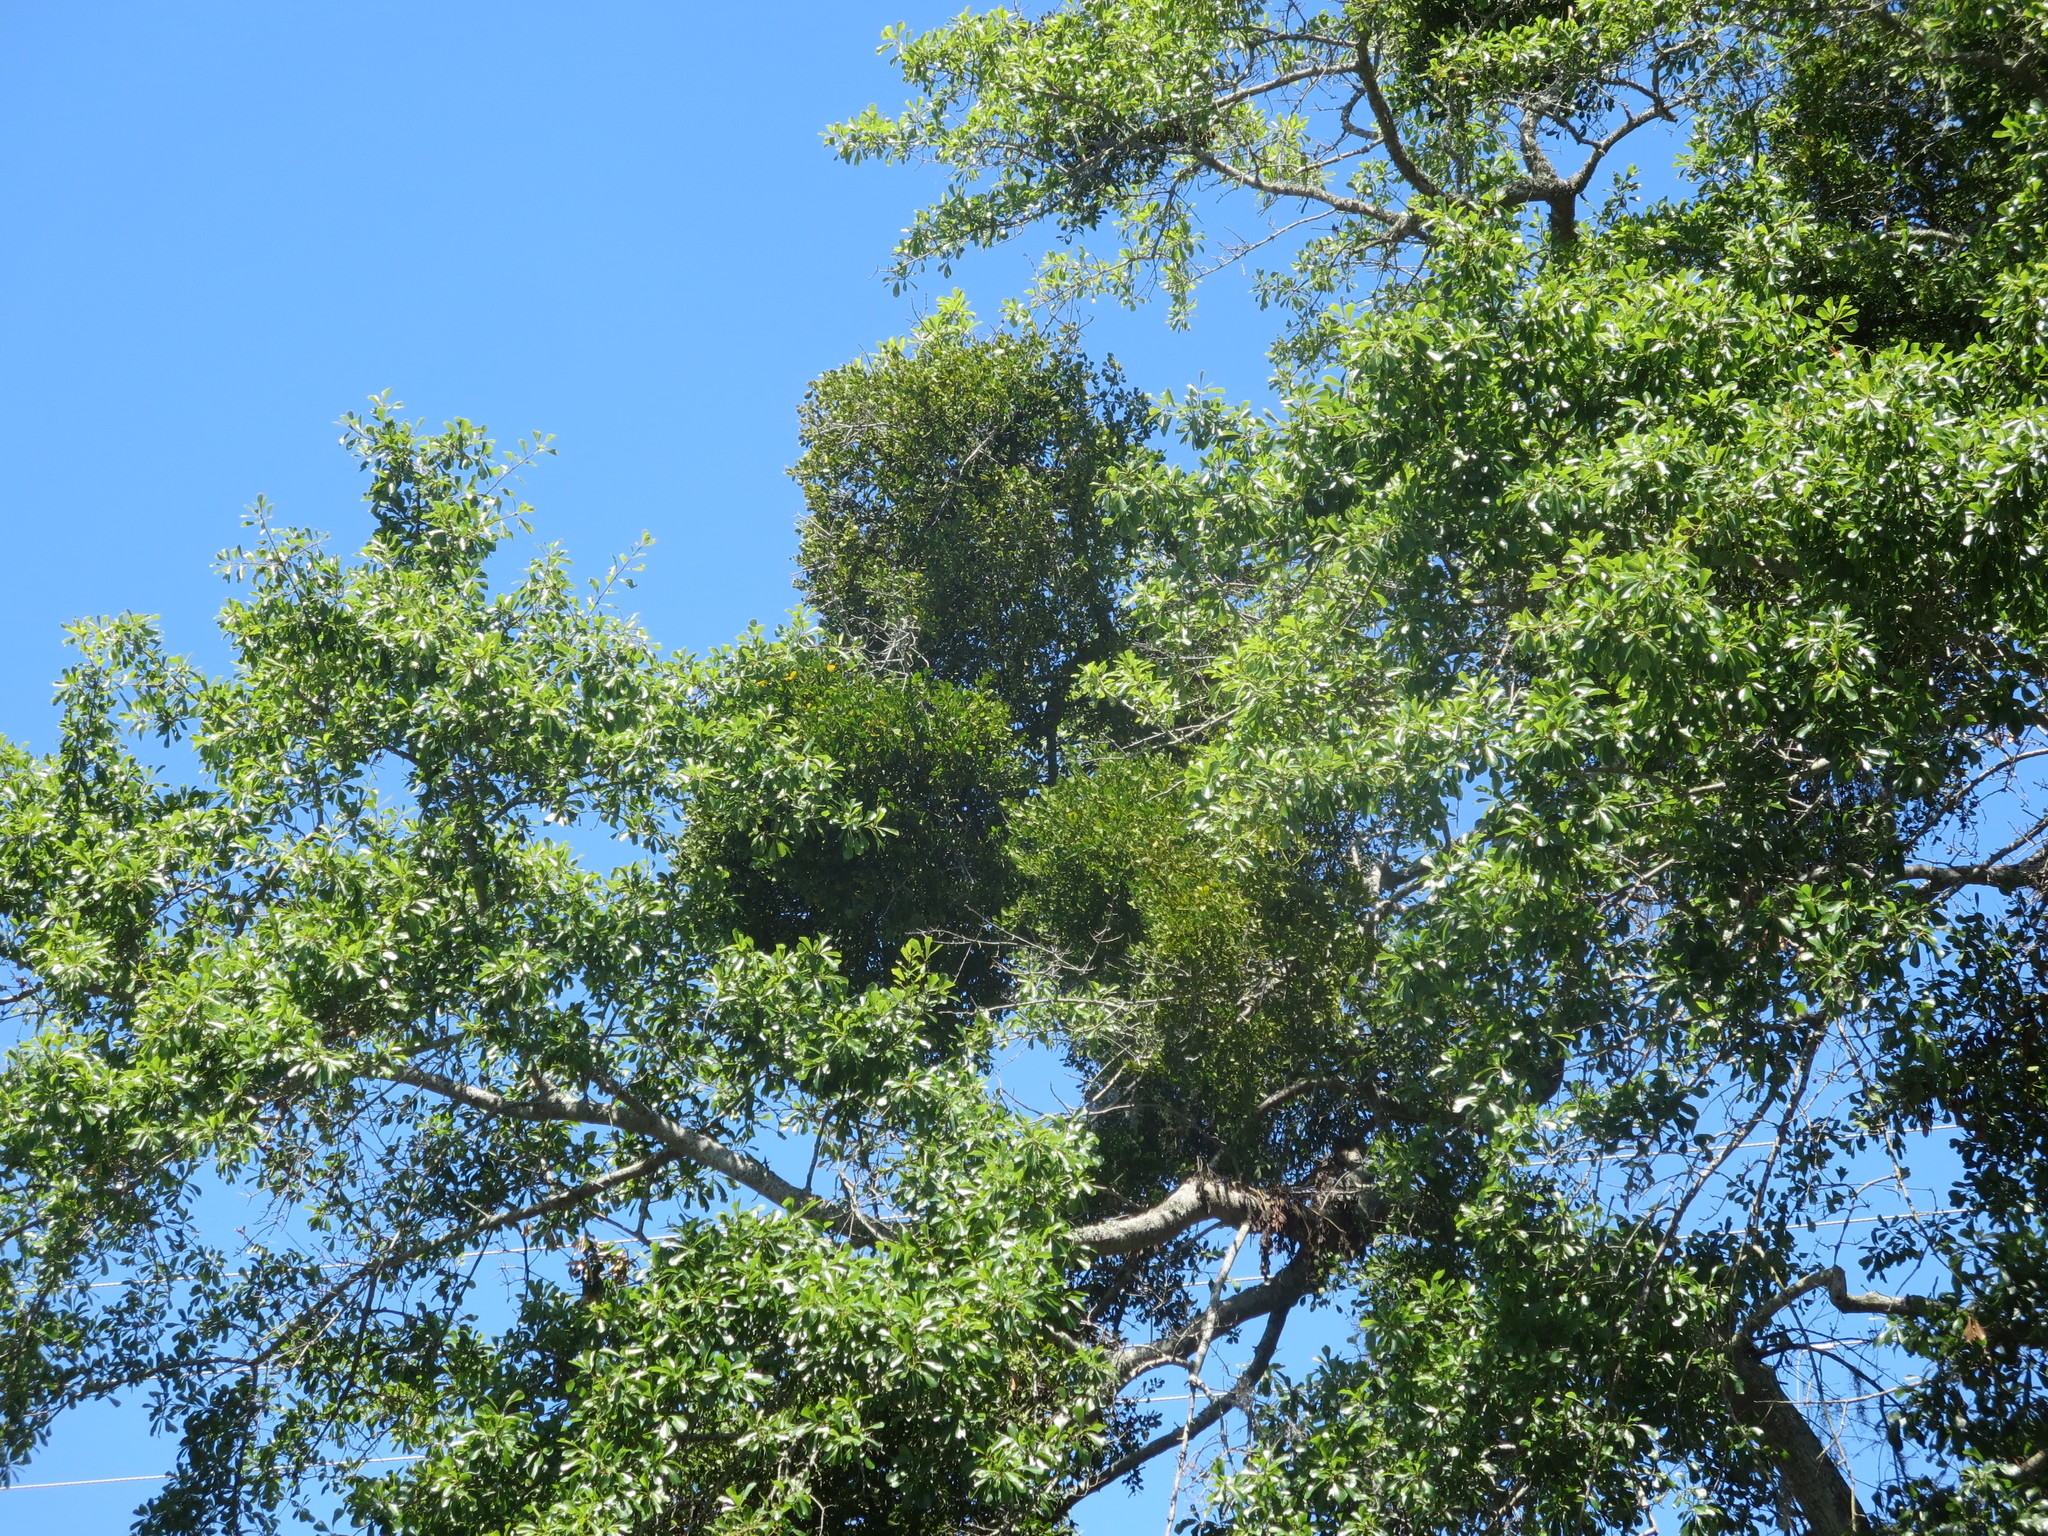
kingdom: Plantae
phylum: Tracheophyta
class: Magnoliopsida
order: Santalales
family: Viscaceae
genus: Phoradendron
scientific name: Phoradendron leucarpum
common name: Pacific mistletoe
